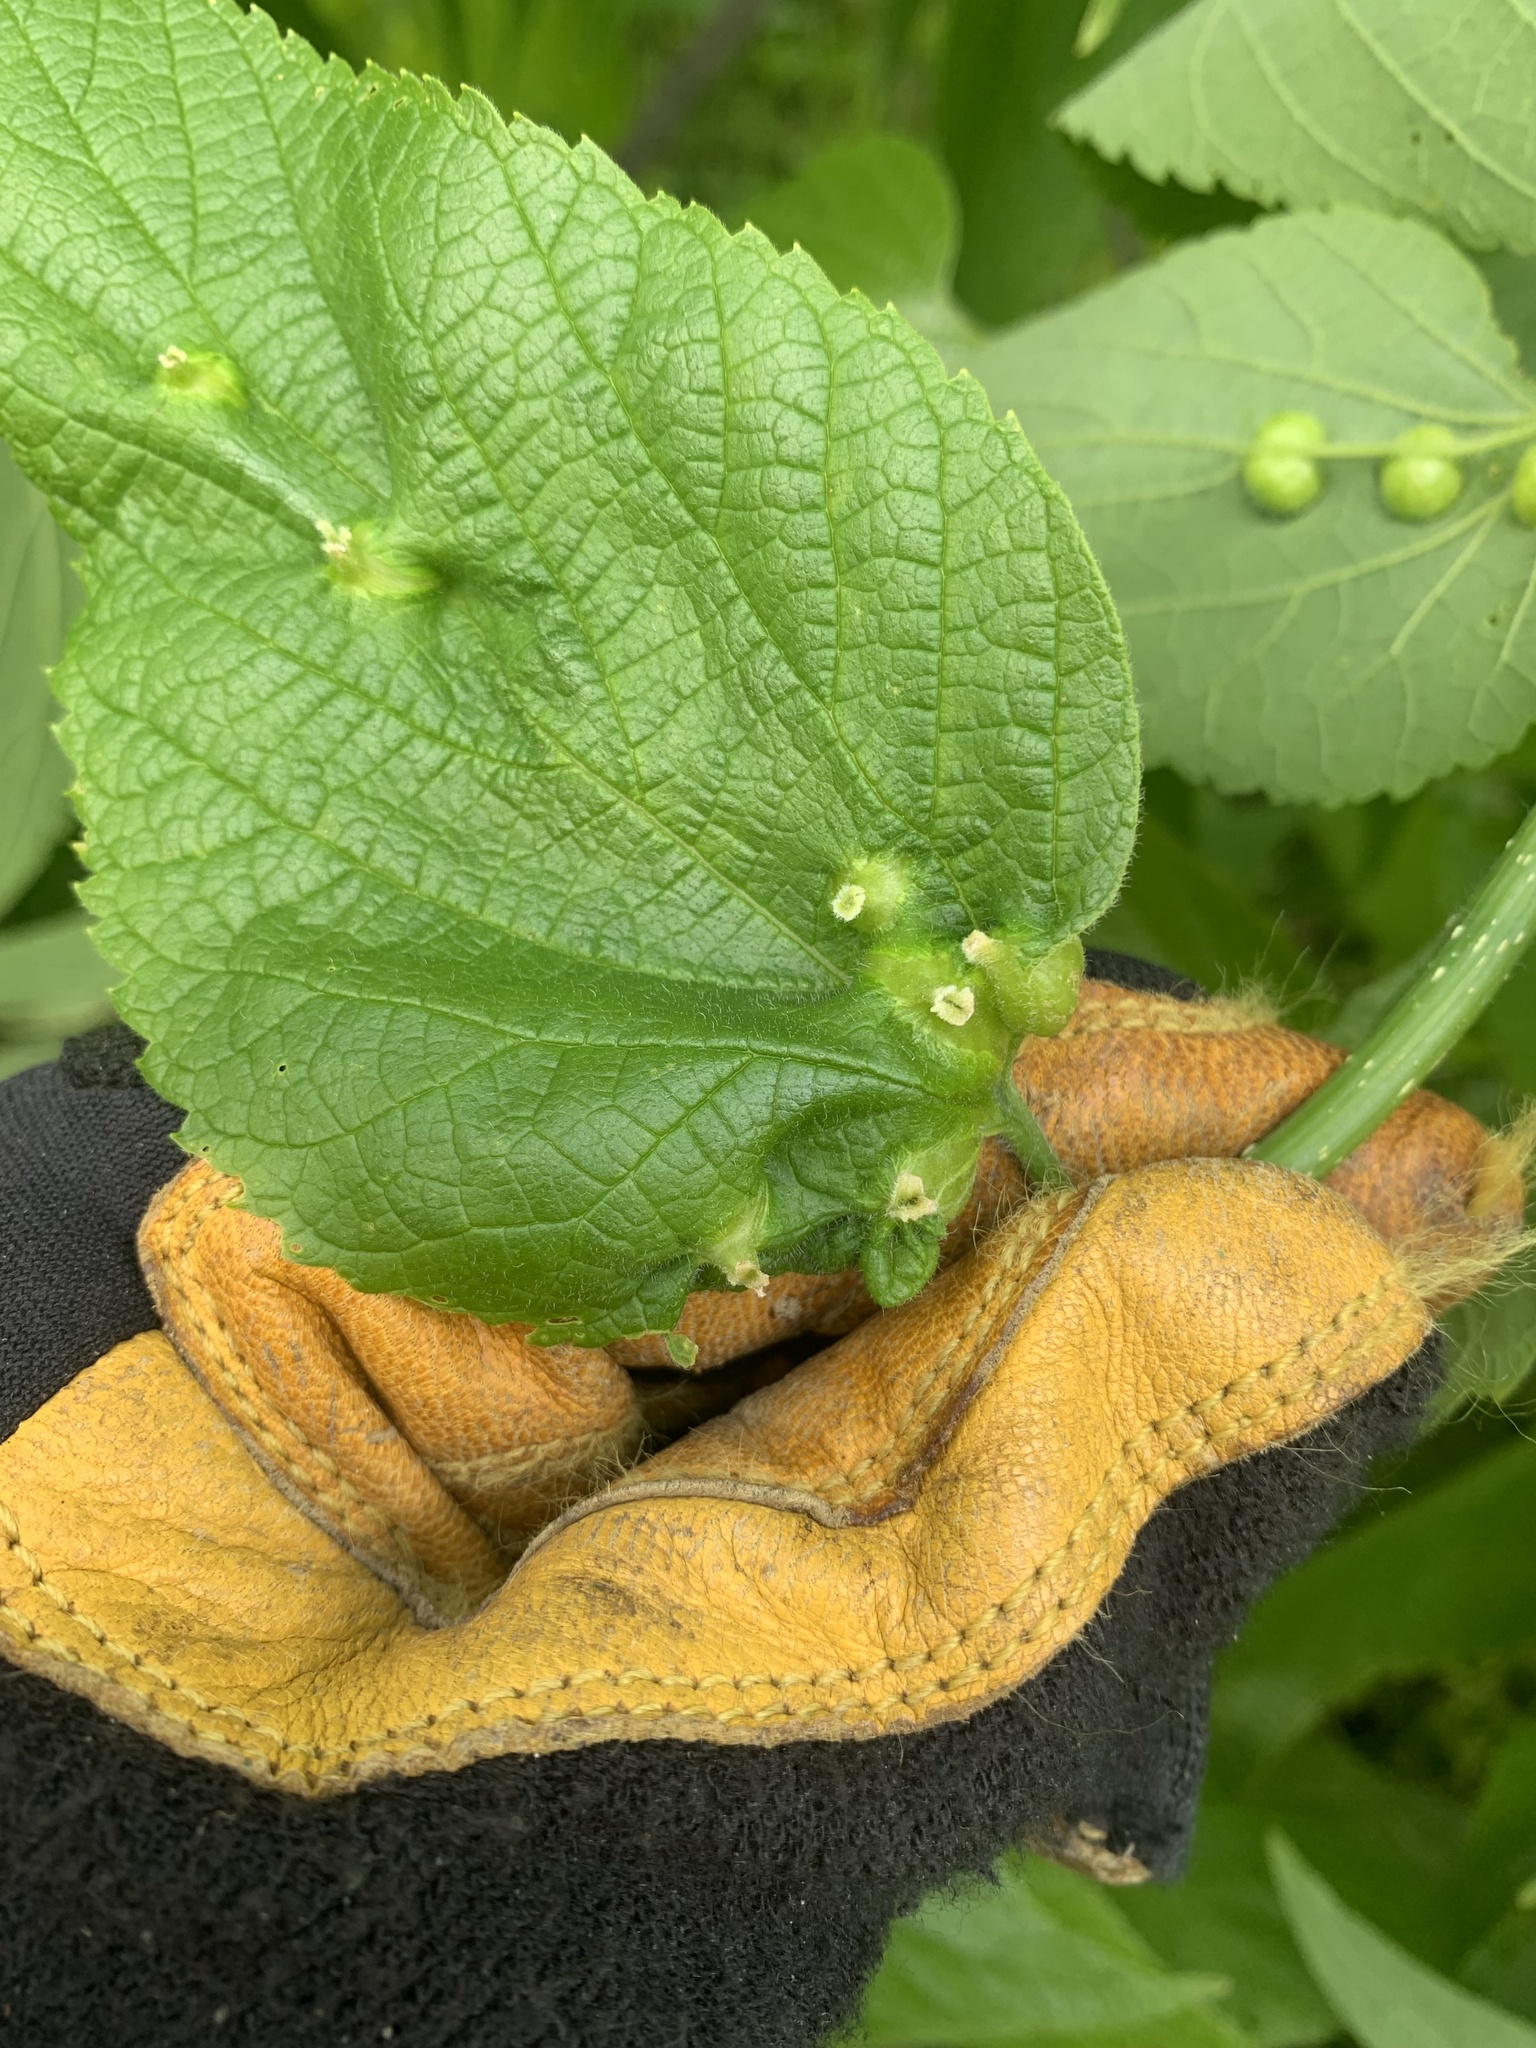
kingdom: Animalia
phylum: Arthropoda
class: Insecta
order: Diptera
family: Cecidomyiidae
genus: Peracecis
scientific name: Peracecis fugitiva
